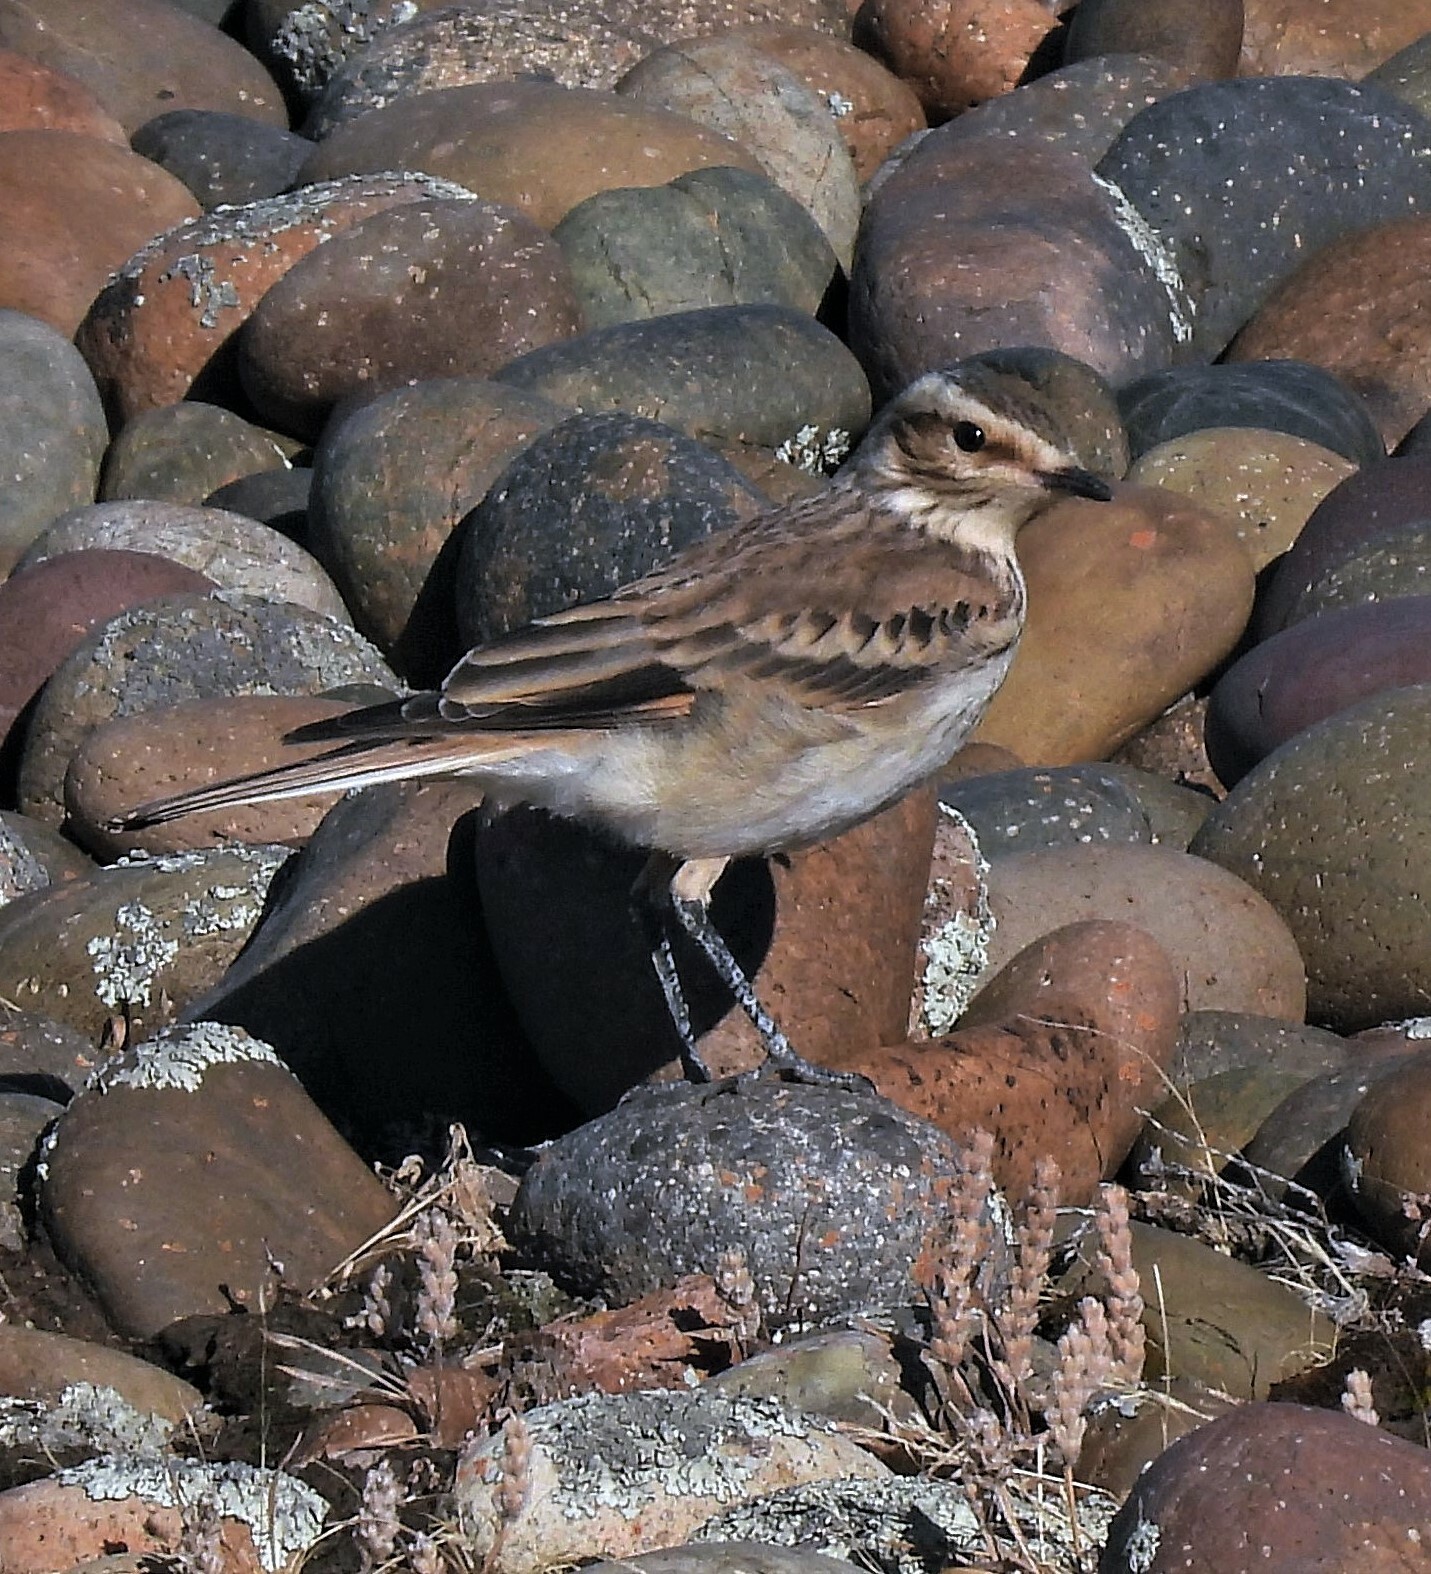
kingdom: Animalia
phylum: Chordata
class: Aves
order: Passeriformes
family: Tyrannidae
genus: Xolmis
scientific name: Xolmis rubetra
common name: Rusty-backed monjita
